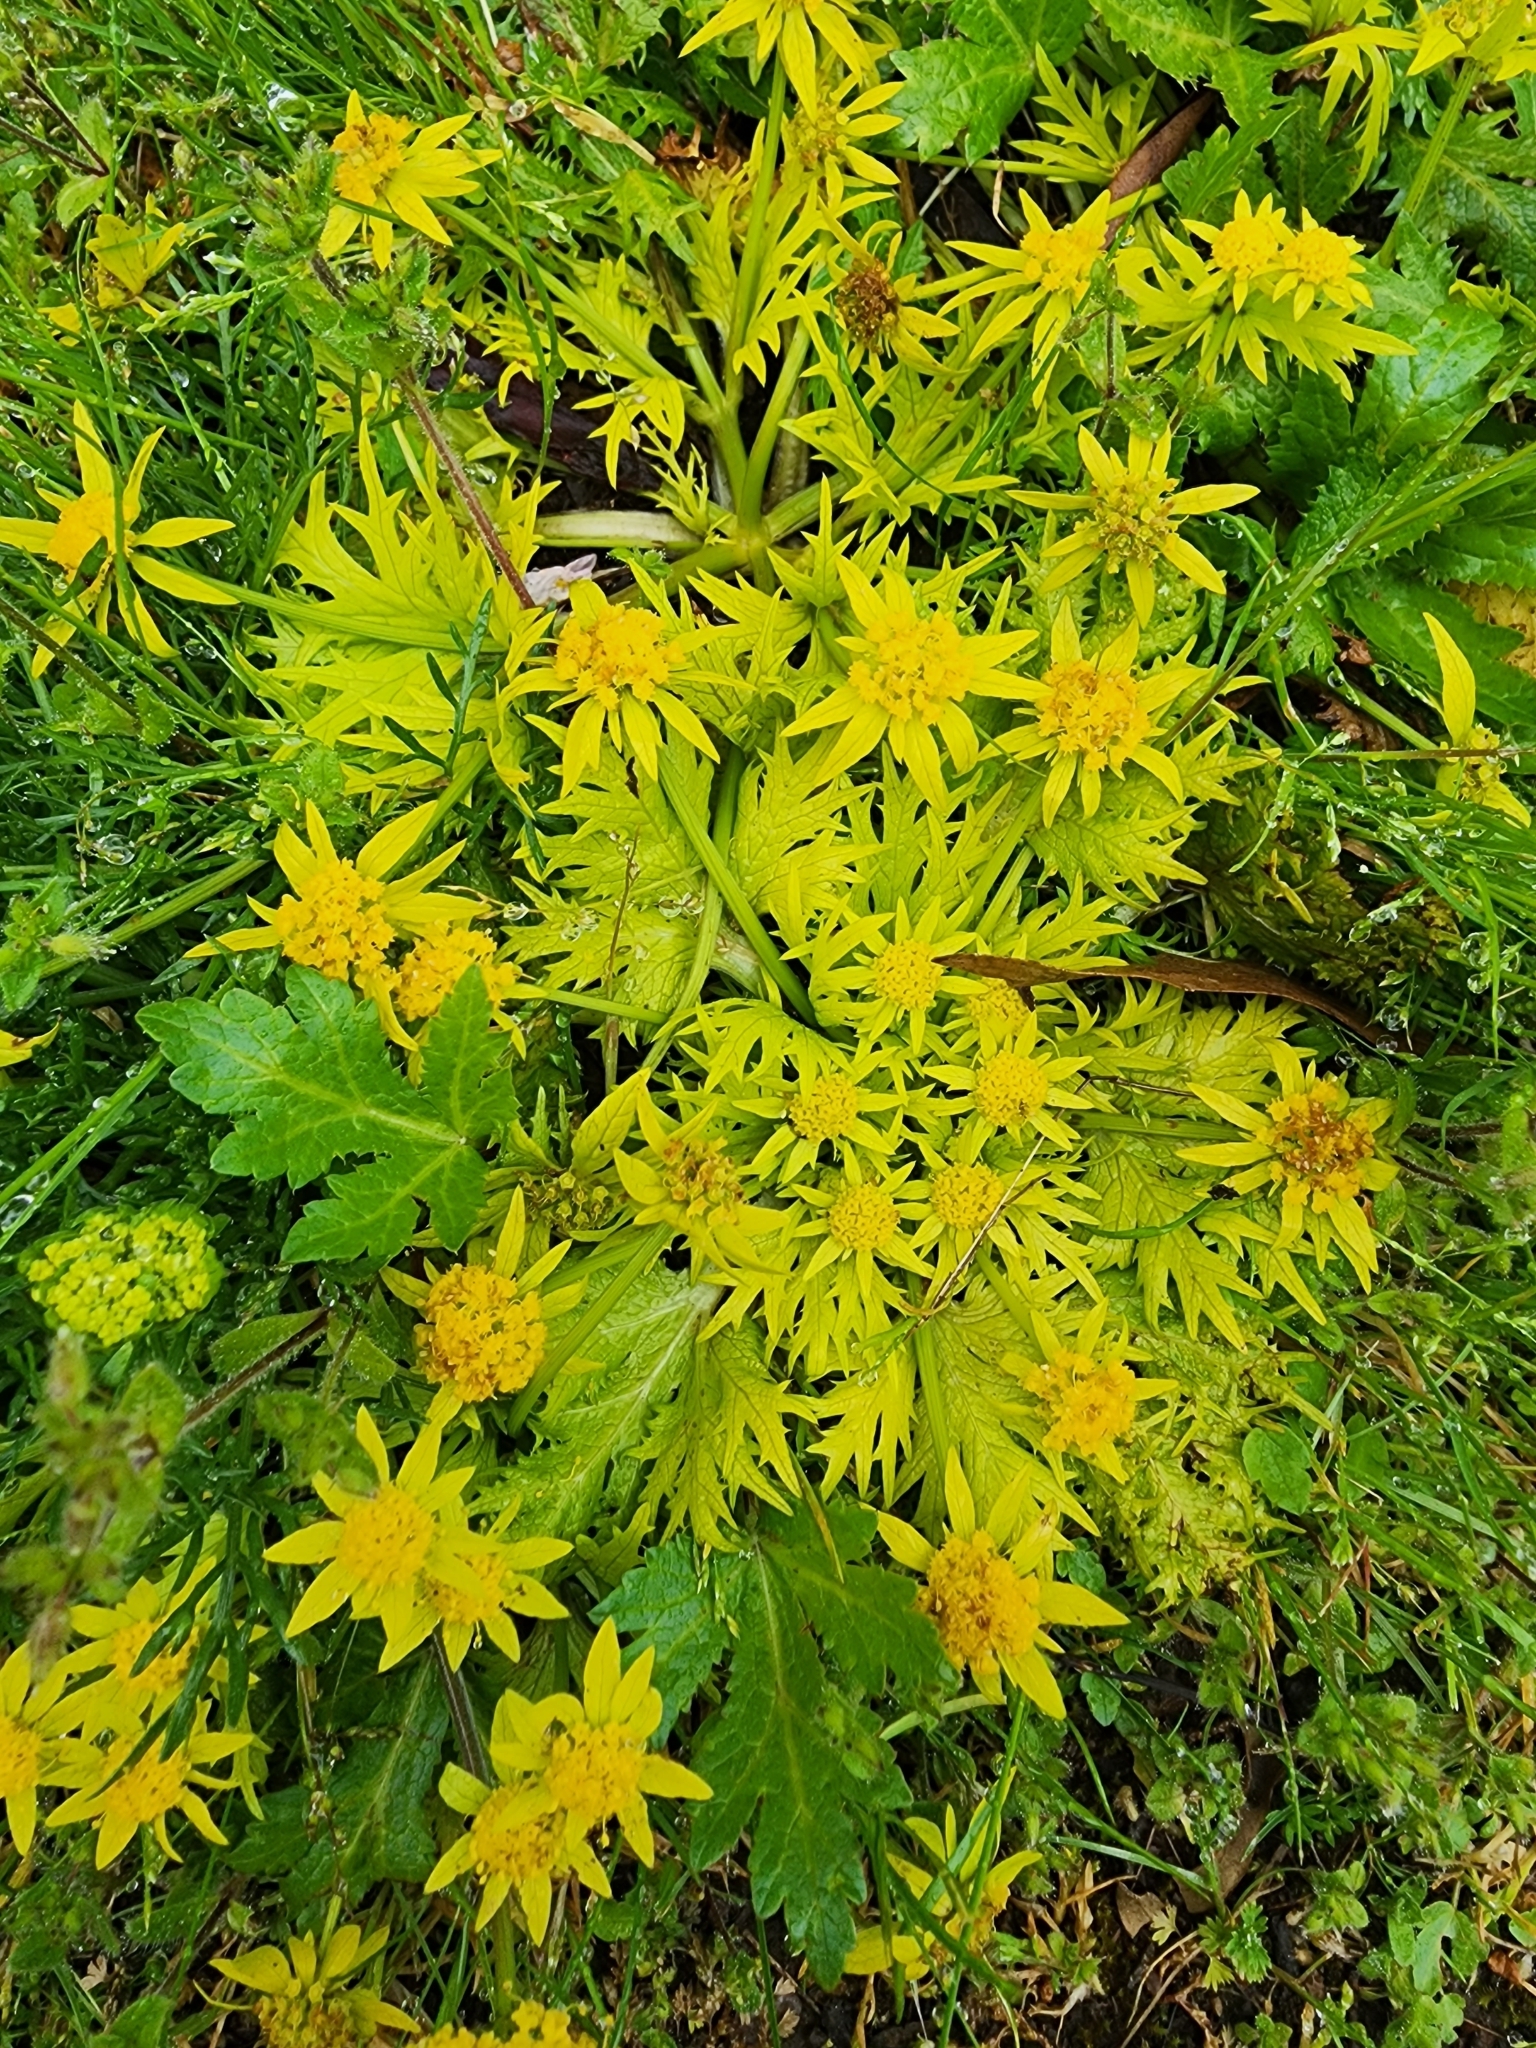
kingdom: Plantae
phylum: Tracheophyta
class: Magnoliopsida
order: Apiales
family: Apiaceae
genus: Sanicula
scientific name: Sanicula arctopoides
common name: Footsteps-of-spring
